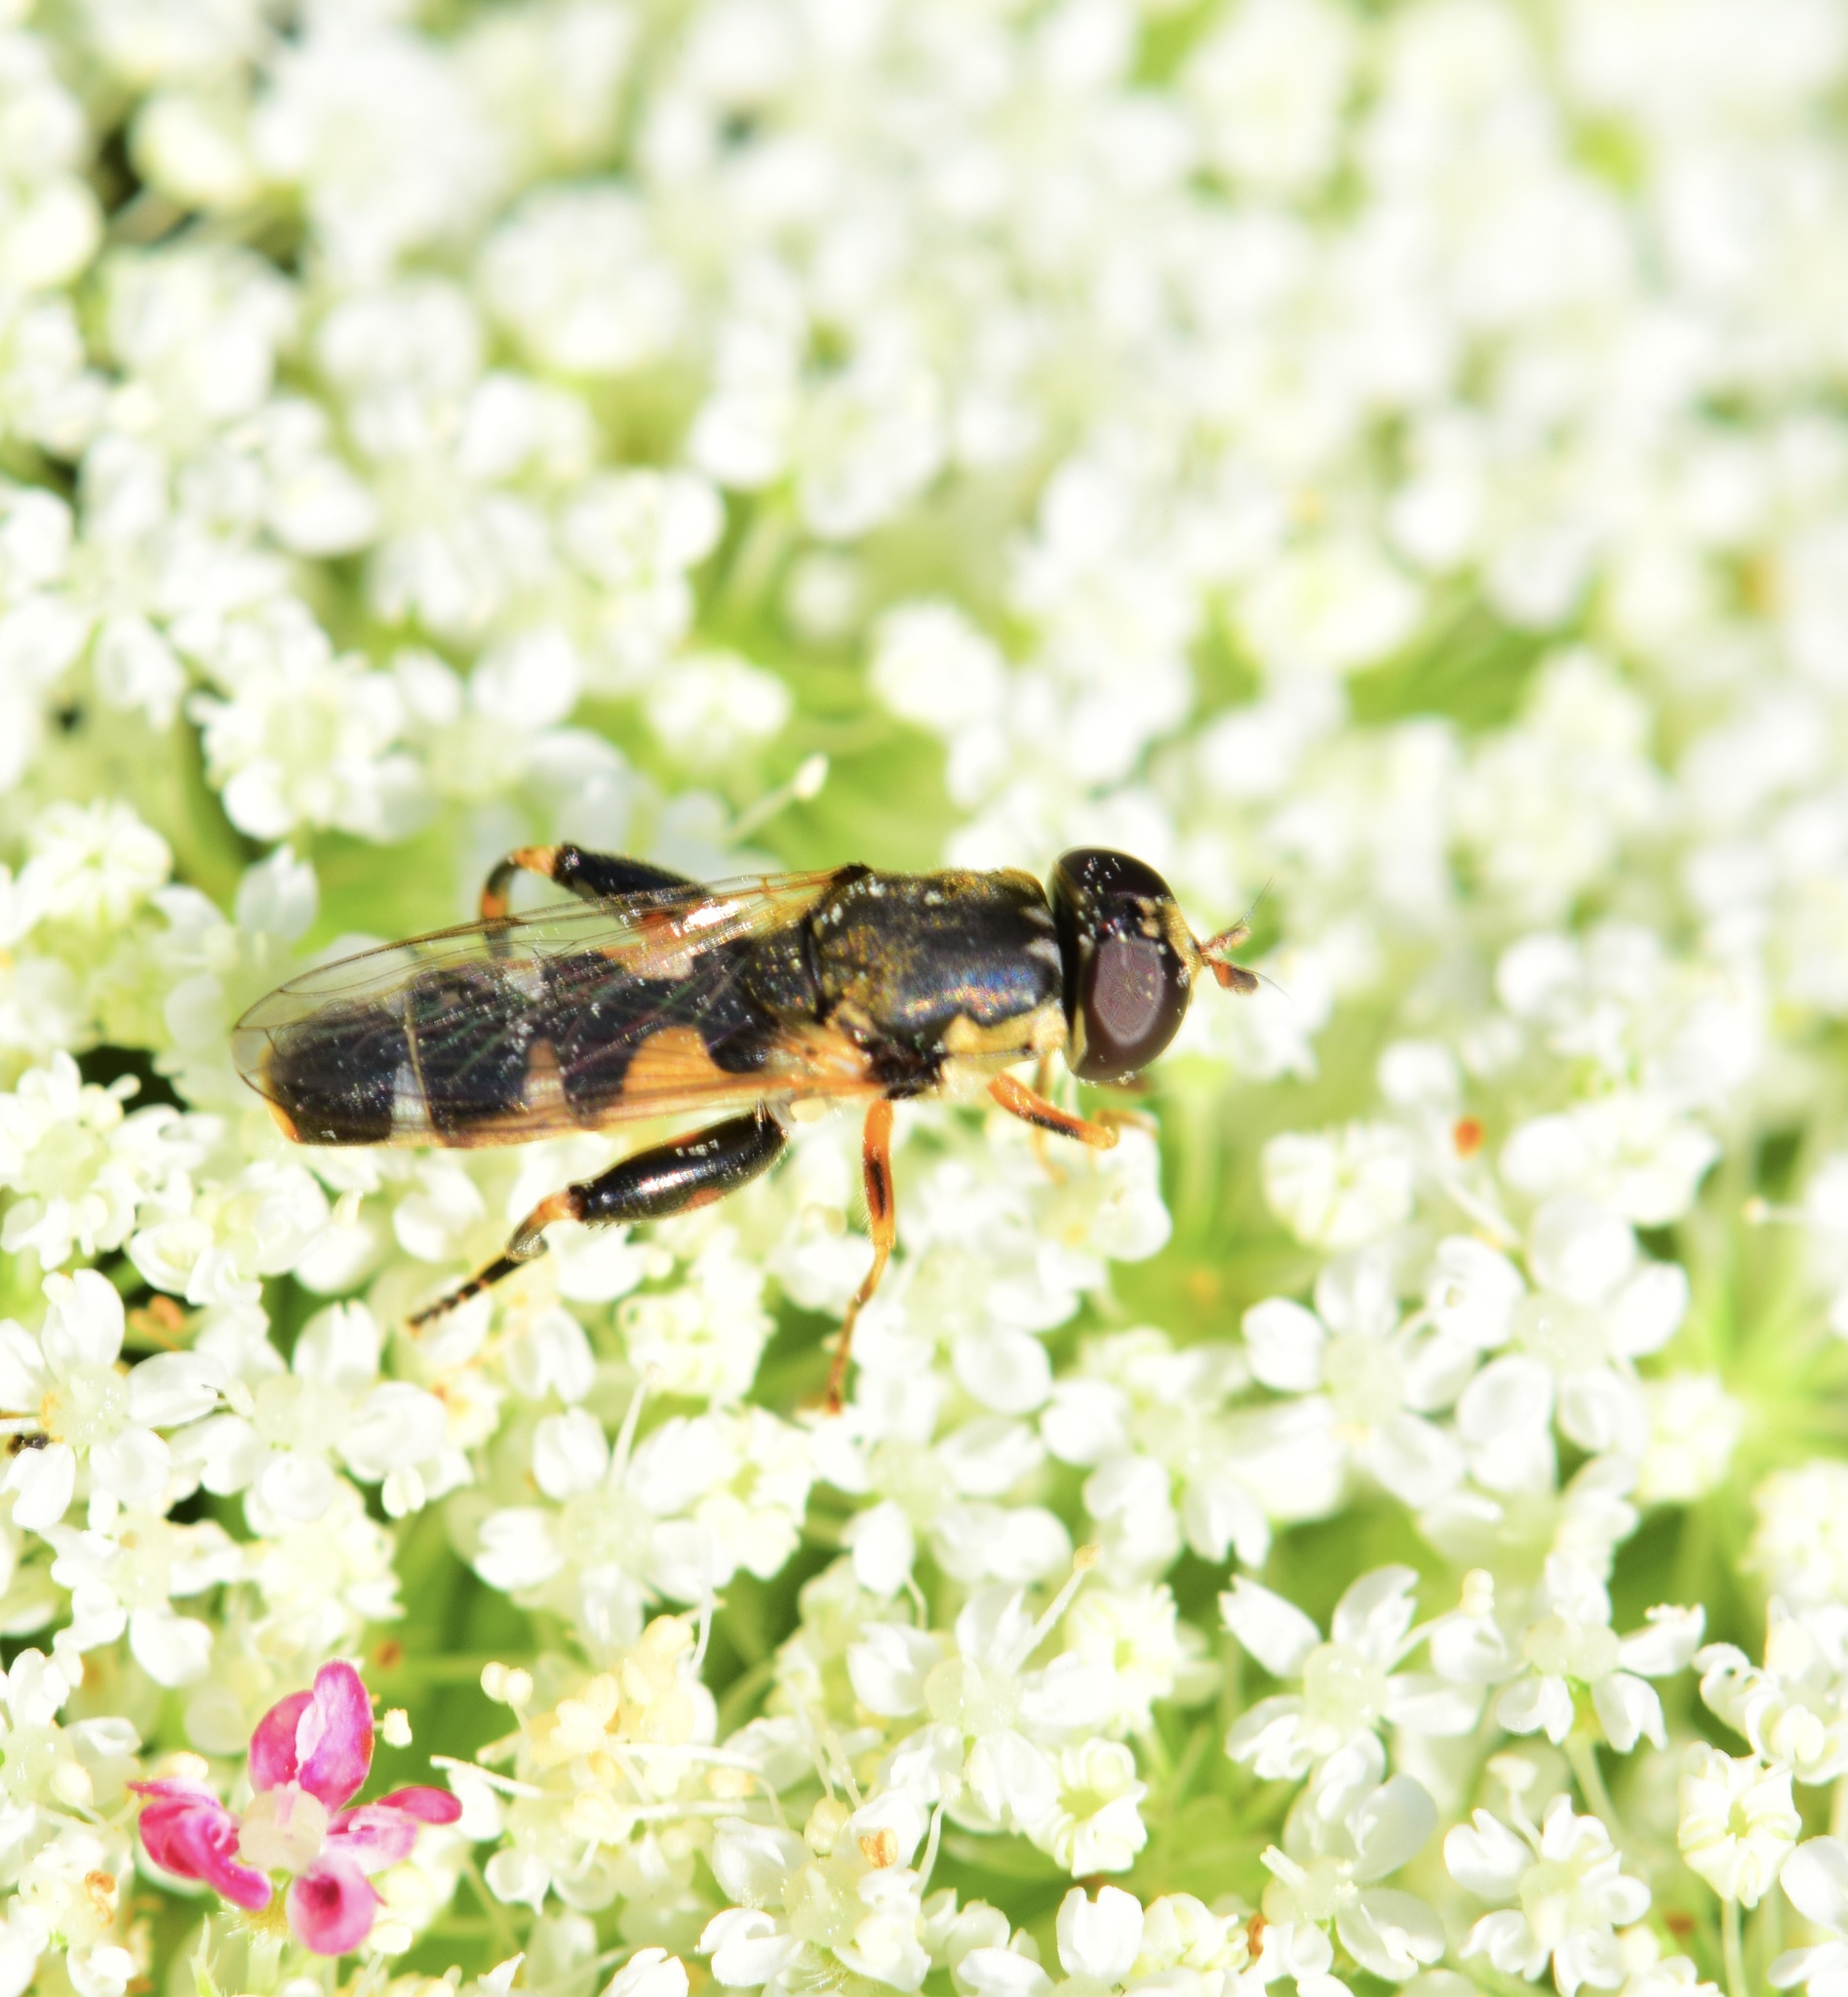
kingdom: Animalia
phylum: Arthropoda
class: Insecta
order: Diptera
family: Syrphidae
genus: Syritta
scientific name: Syritta pipiens
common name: Hover fly
